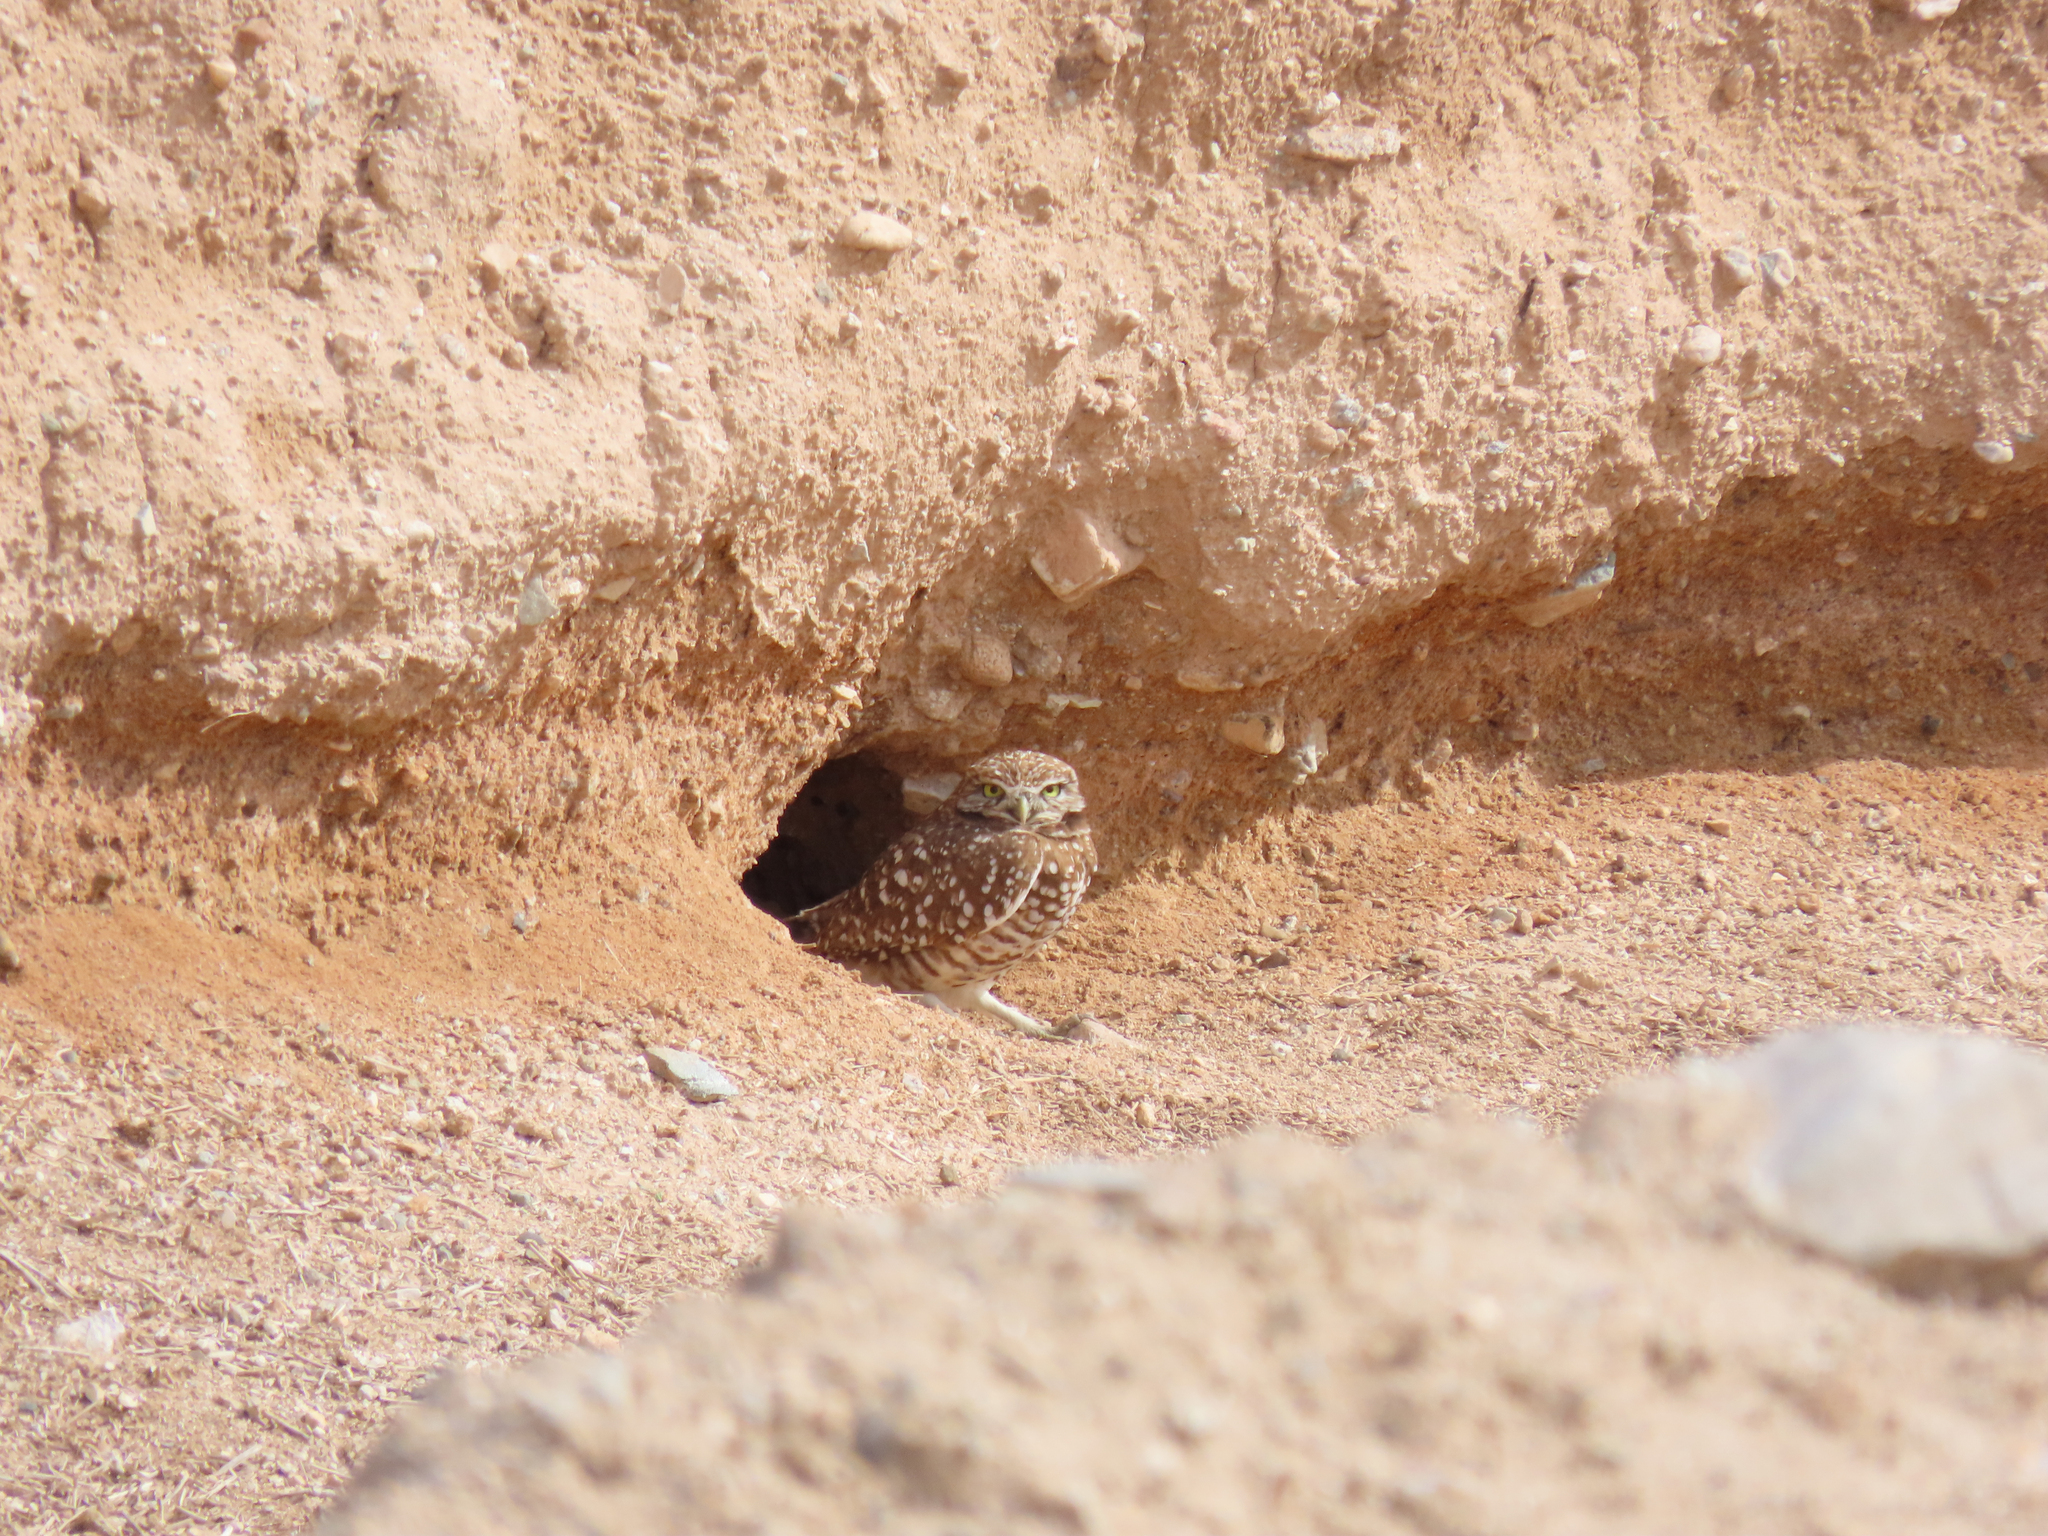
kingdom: Animalia
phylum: Chordata
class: Aves
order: Strigiformes
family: Strigidae
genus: Athene
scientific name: Athene cunicularia
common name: Burrowing owl
